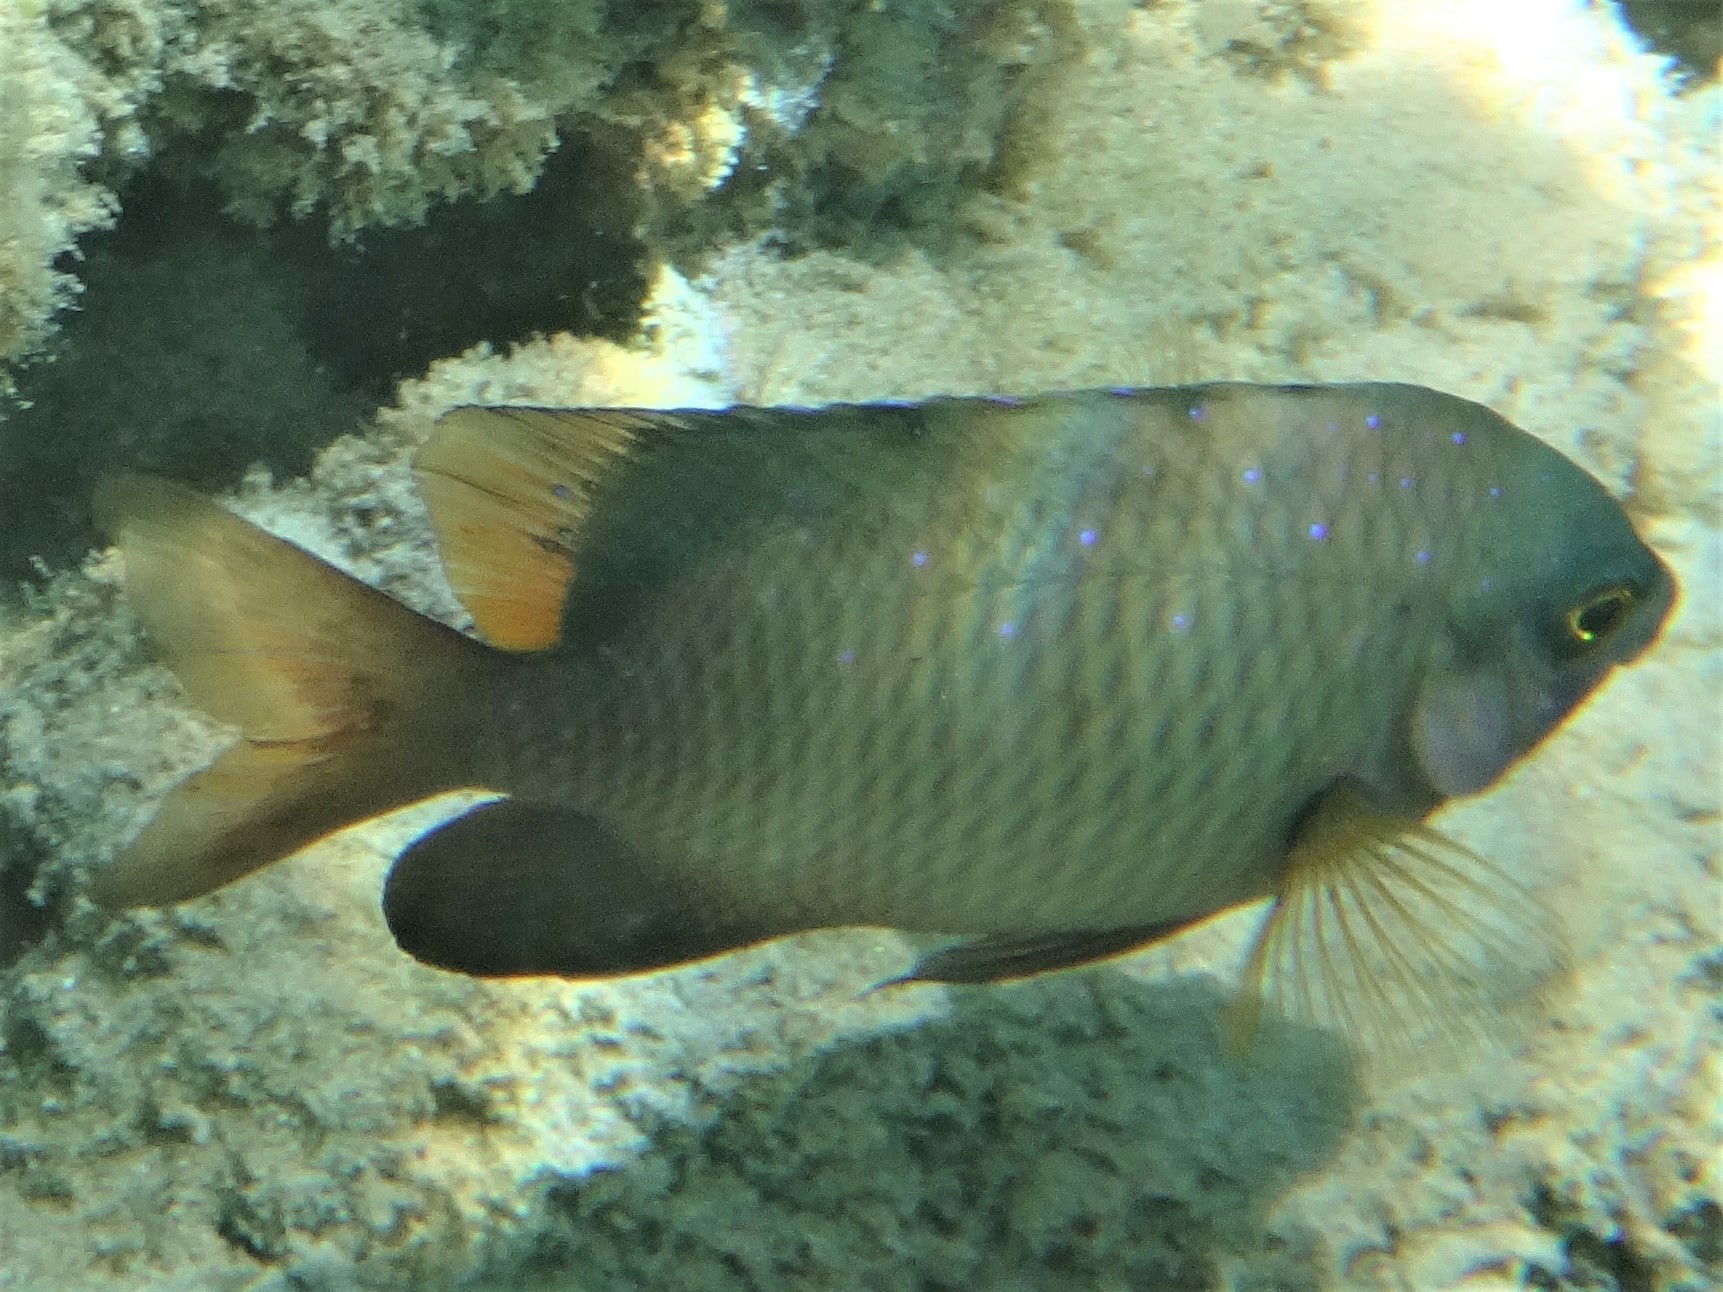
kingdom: Animalia
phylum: Chordata
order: Perciformes
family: Pomacentridae
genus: Plectroglyphidodon
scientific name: Plectroglyphidodon lacrymatus
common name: Jewel damsel
